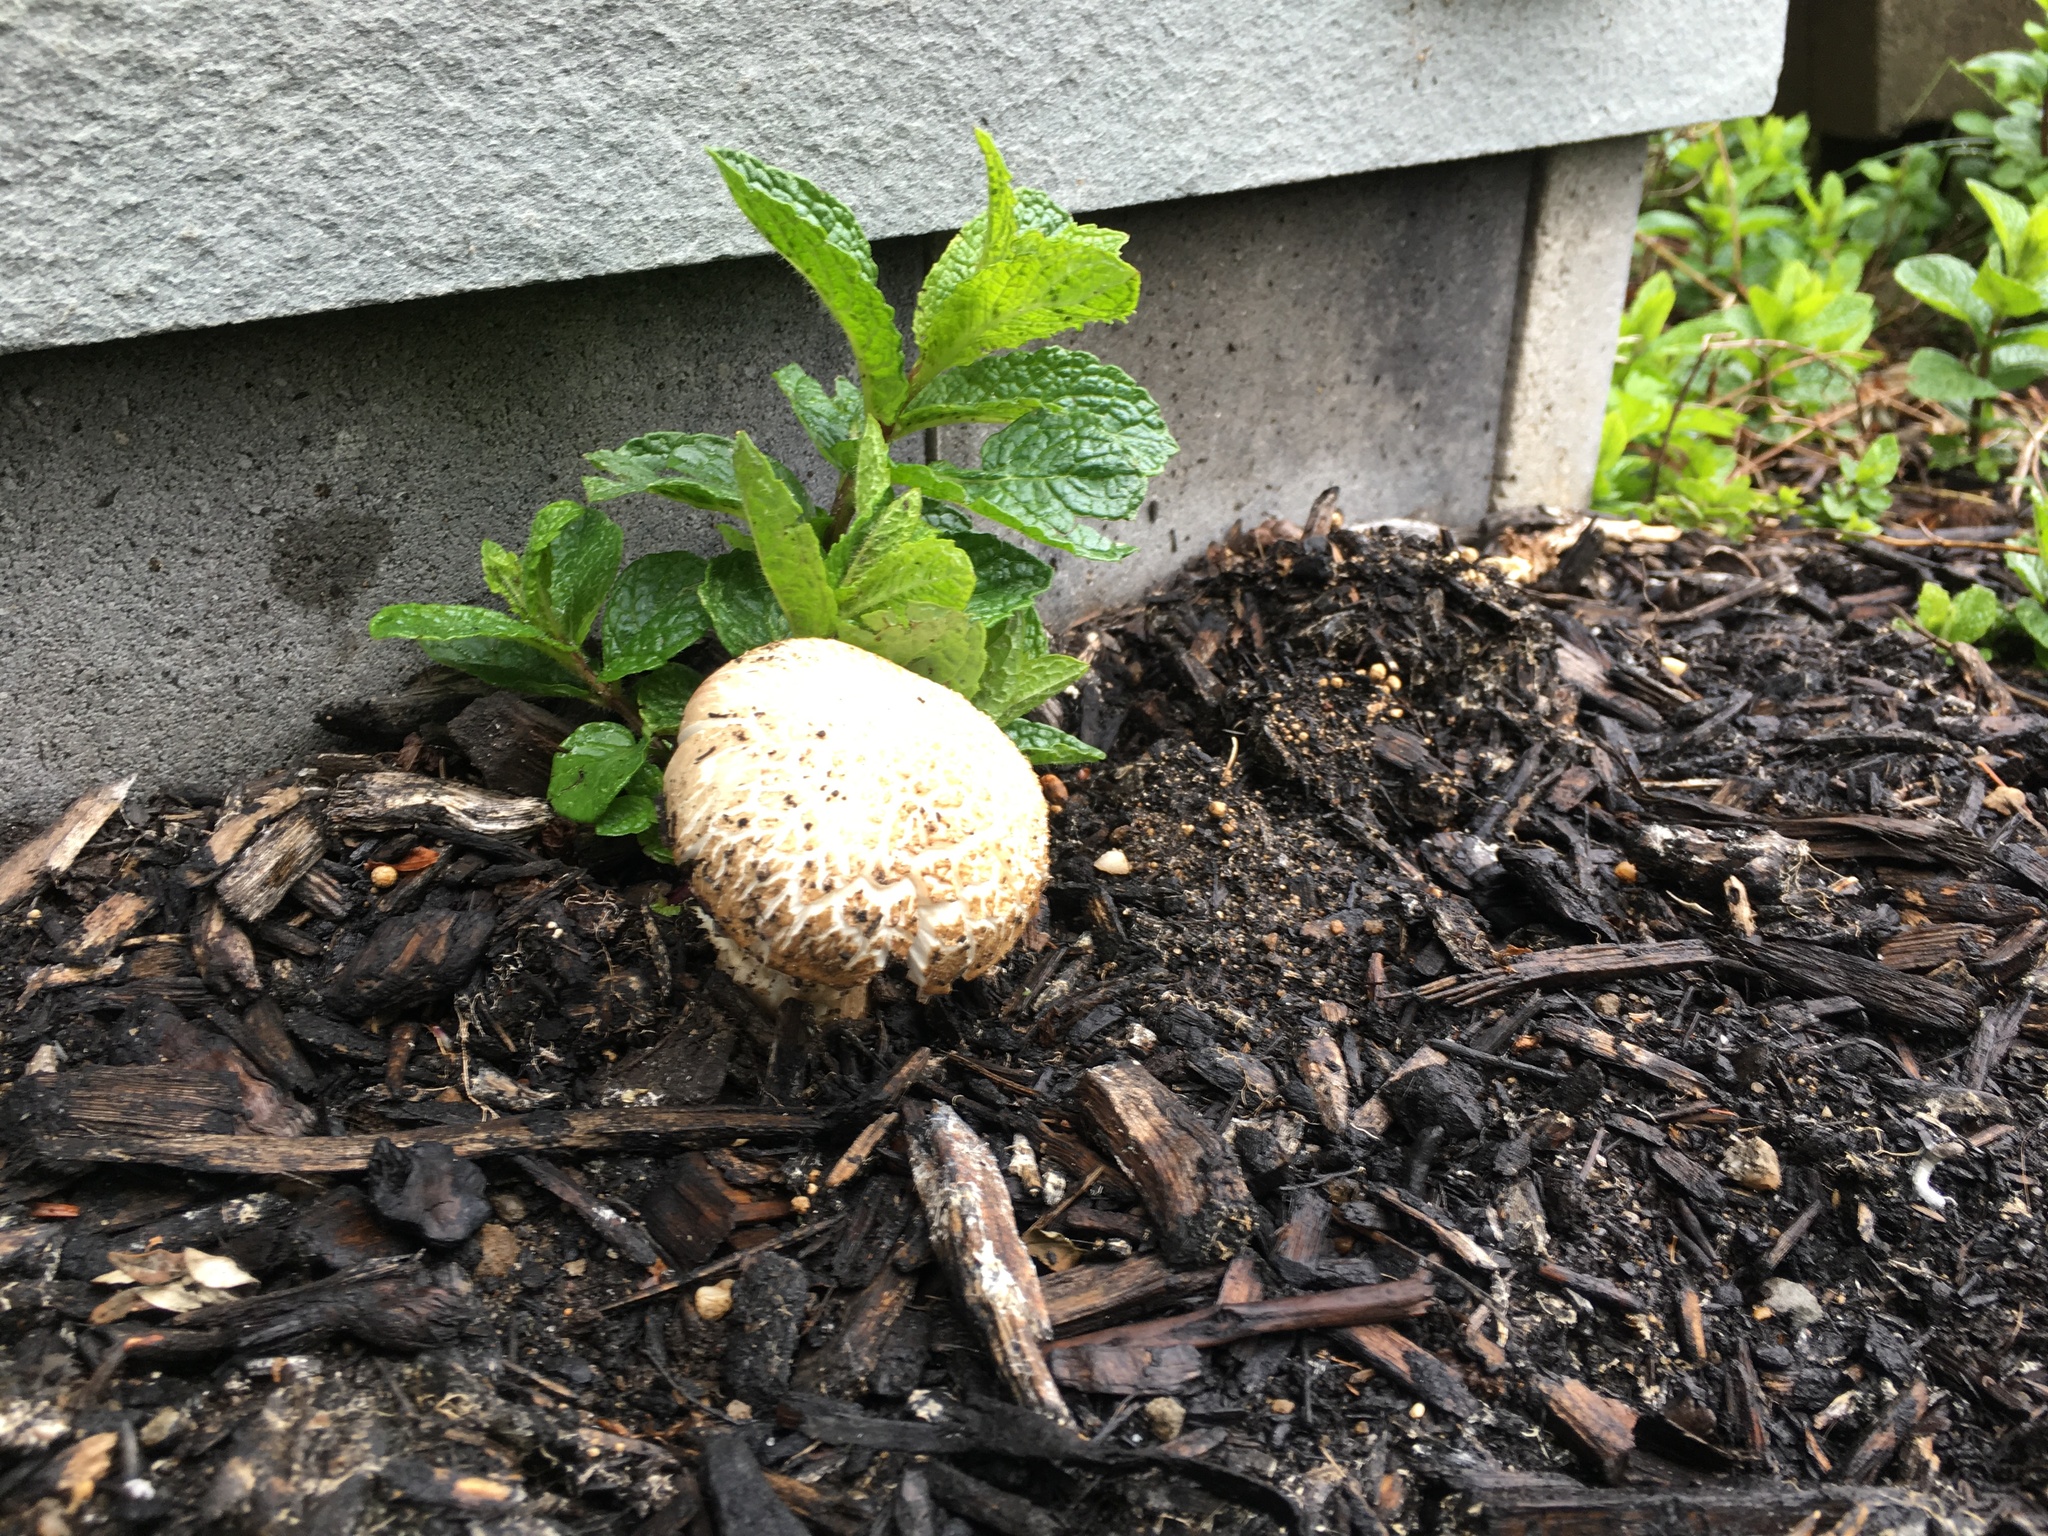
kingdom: Fungi
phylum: Basidiomycota
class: Agaricomycetes
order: Agaricales
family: Strophariaceae
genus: Stropharia
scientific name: Stropharia rugosoannulata
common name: Wine roundhead
